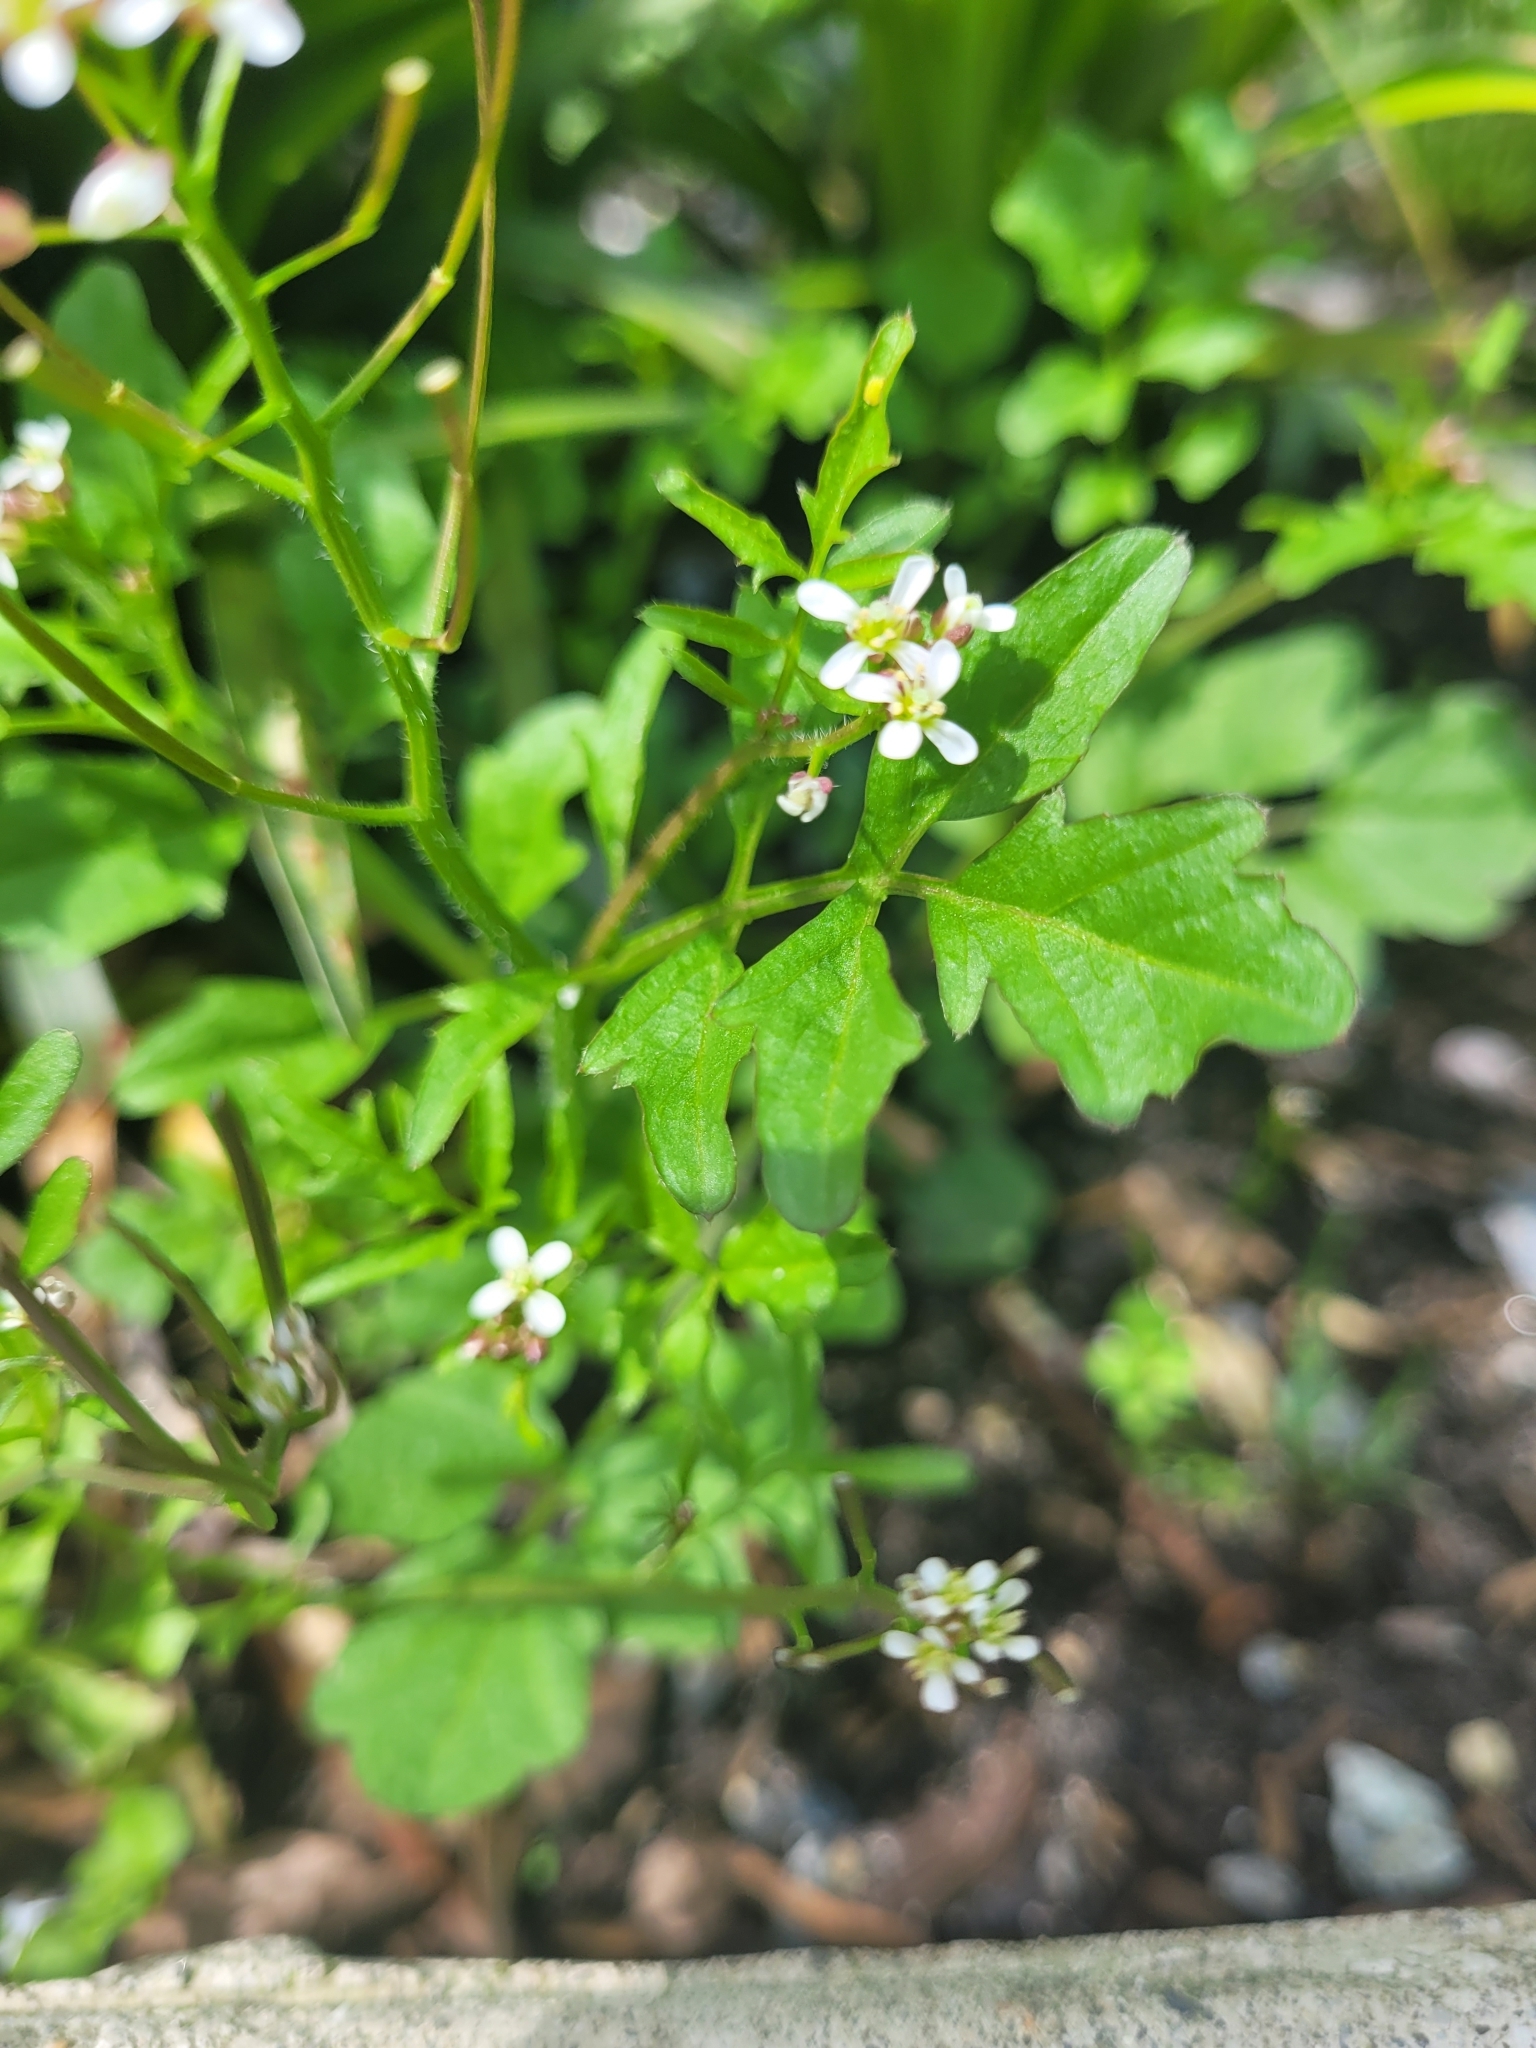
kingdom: Plantae
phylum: Tracheophyta
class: Magnoliopsida
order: Brassicales
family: Brassicaceae
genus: Cardamine
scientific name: Cardamine flexuosa
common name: Woodland bittercress
